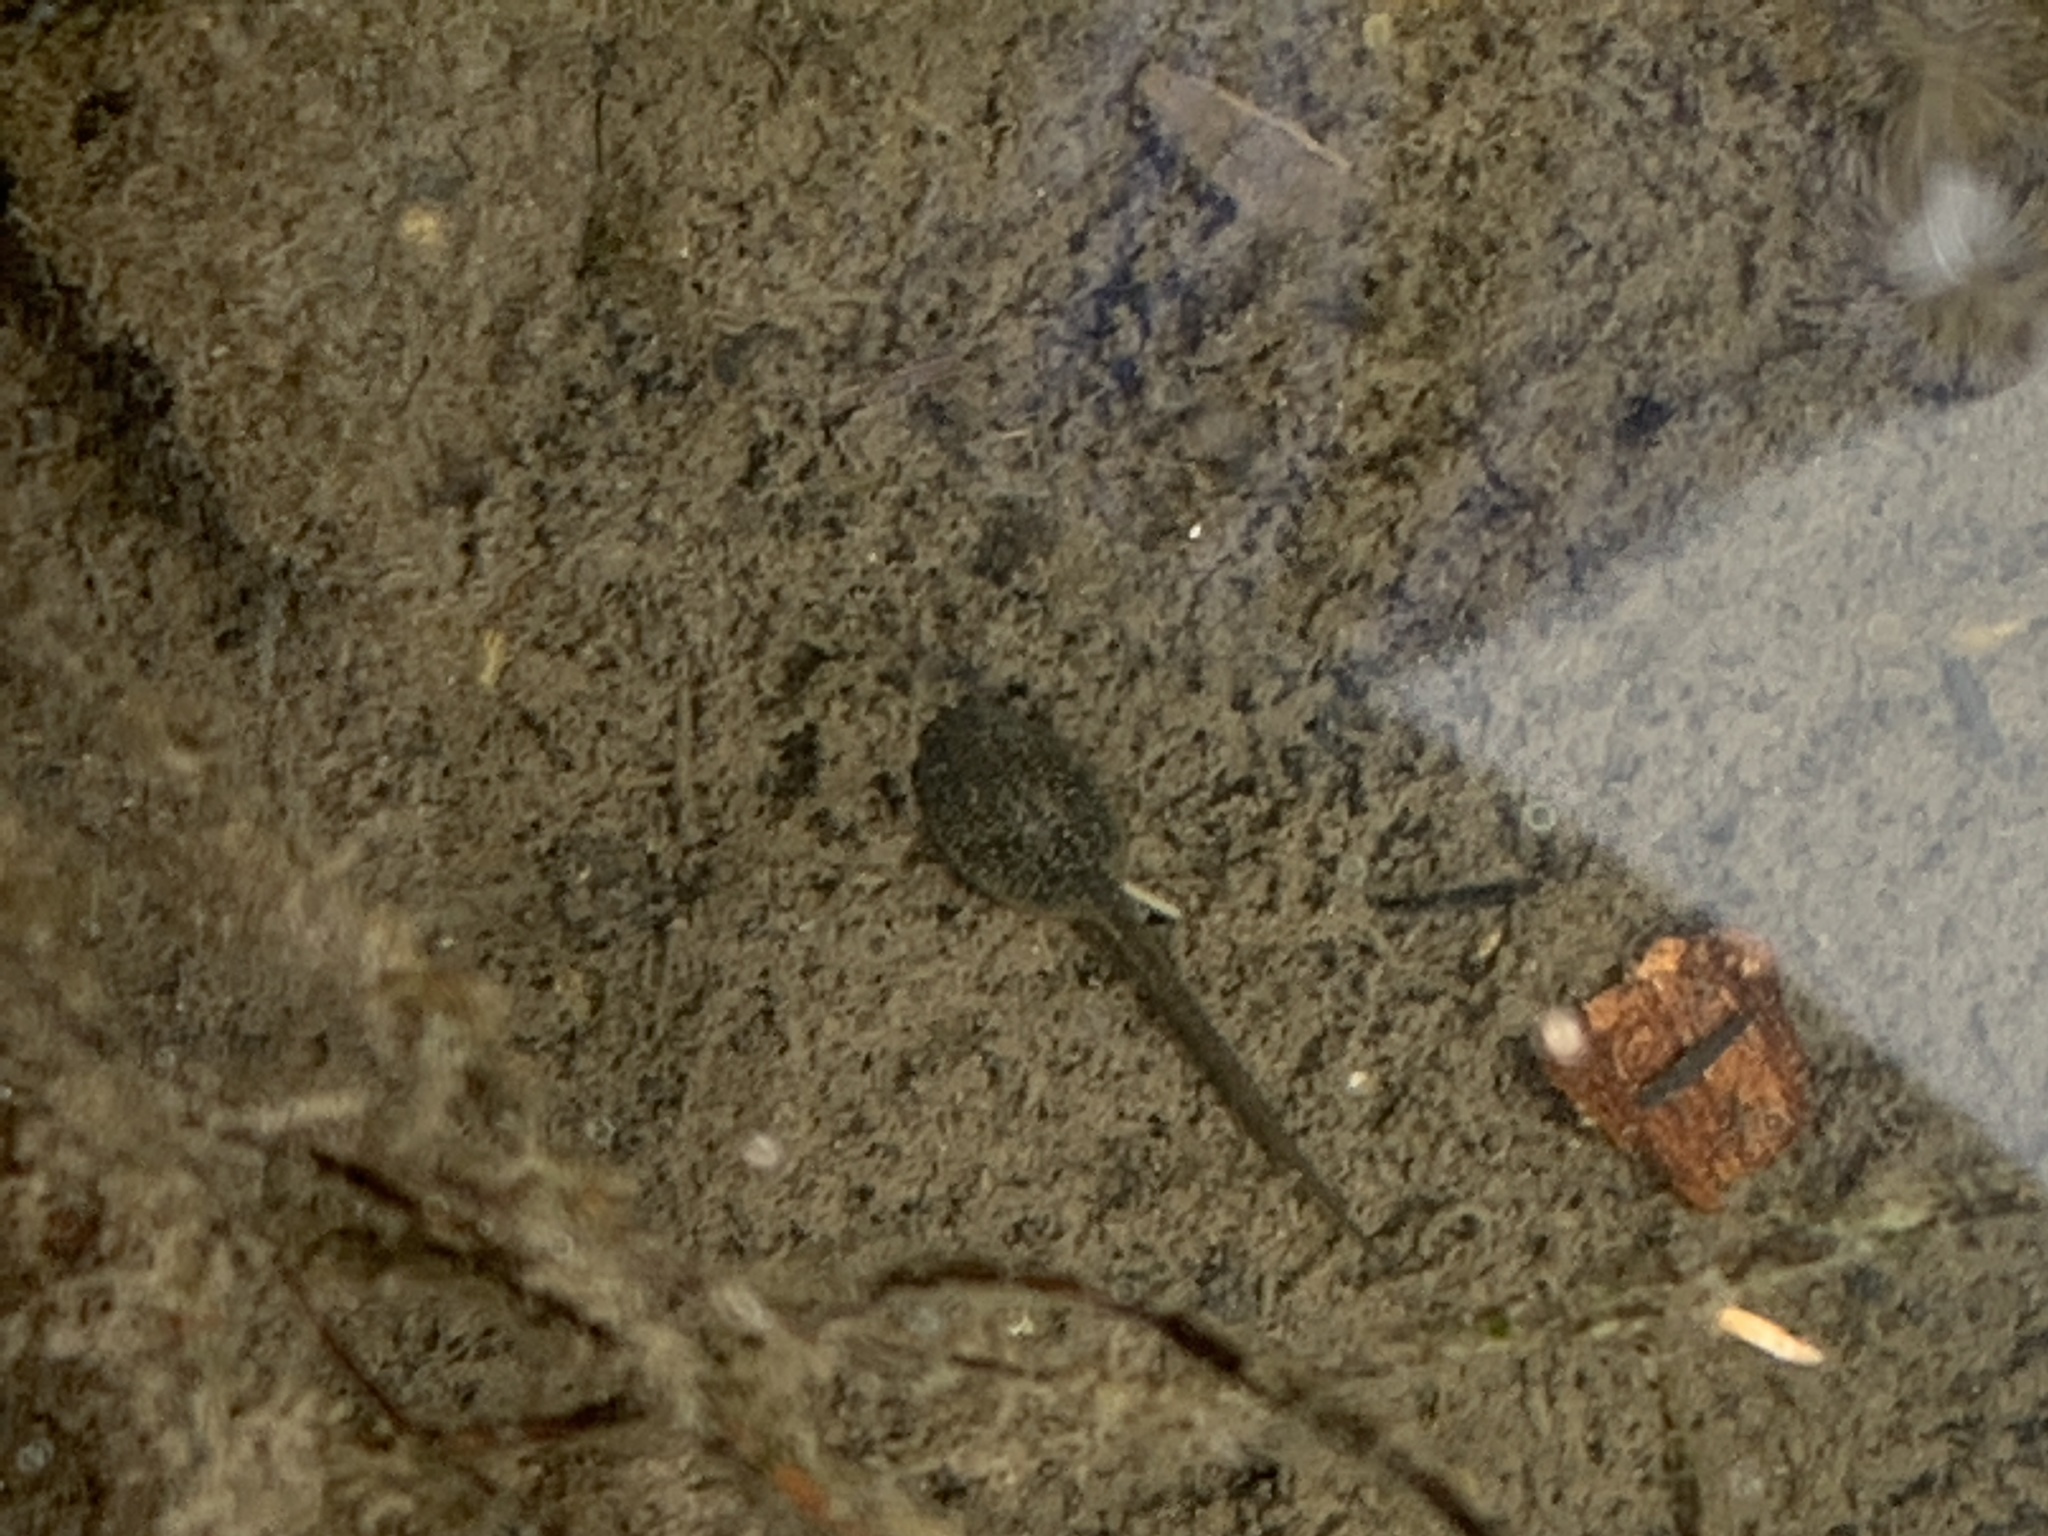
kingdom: Animalia
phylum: Chordata
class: Amphibia
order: Anura
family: Ranidae
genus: Rana
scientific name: Rana temporaria
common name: Common frog
